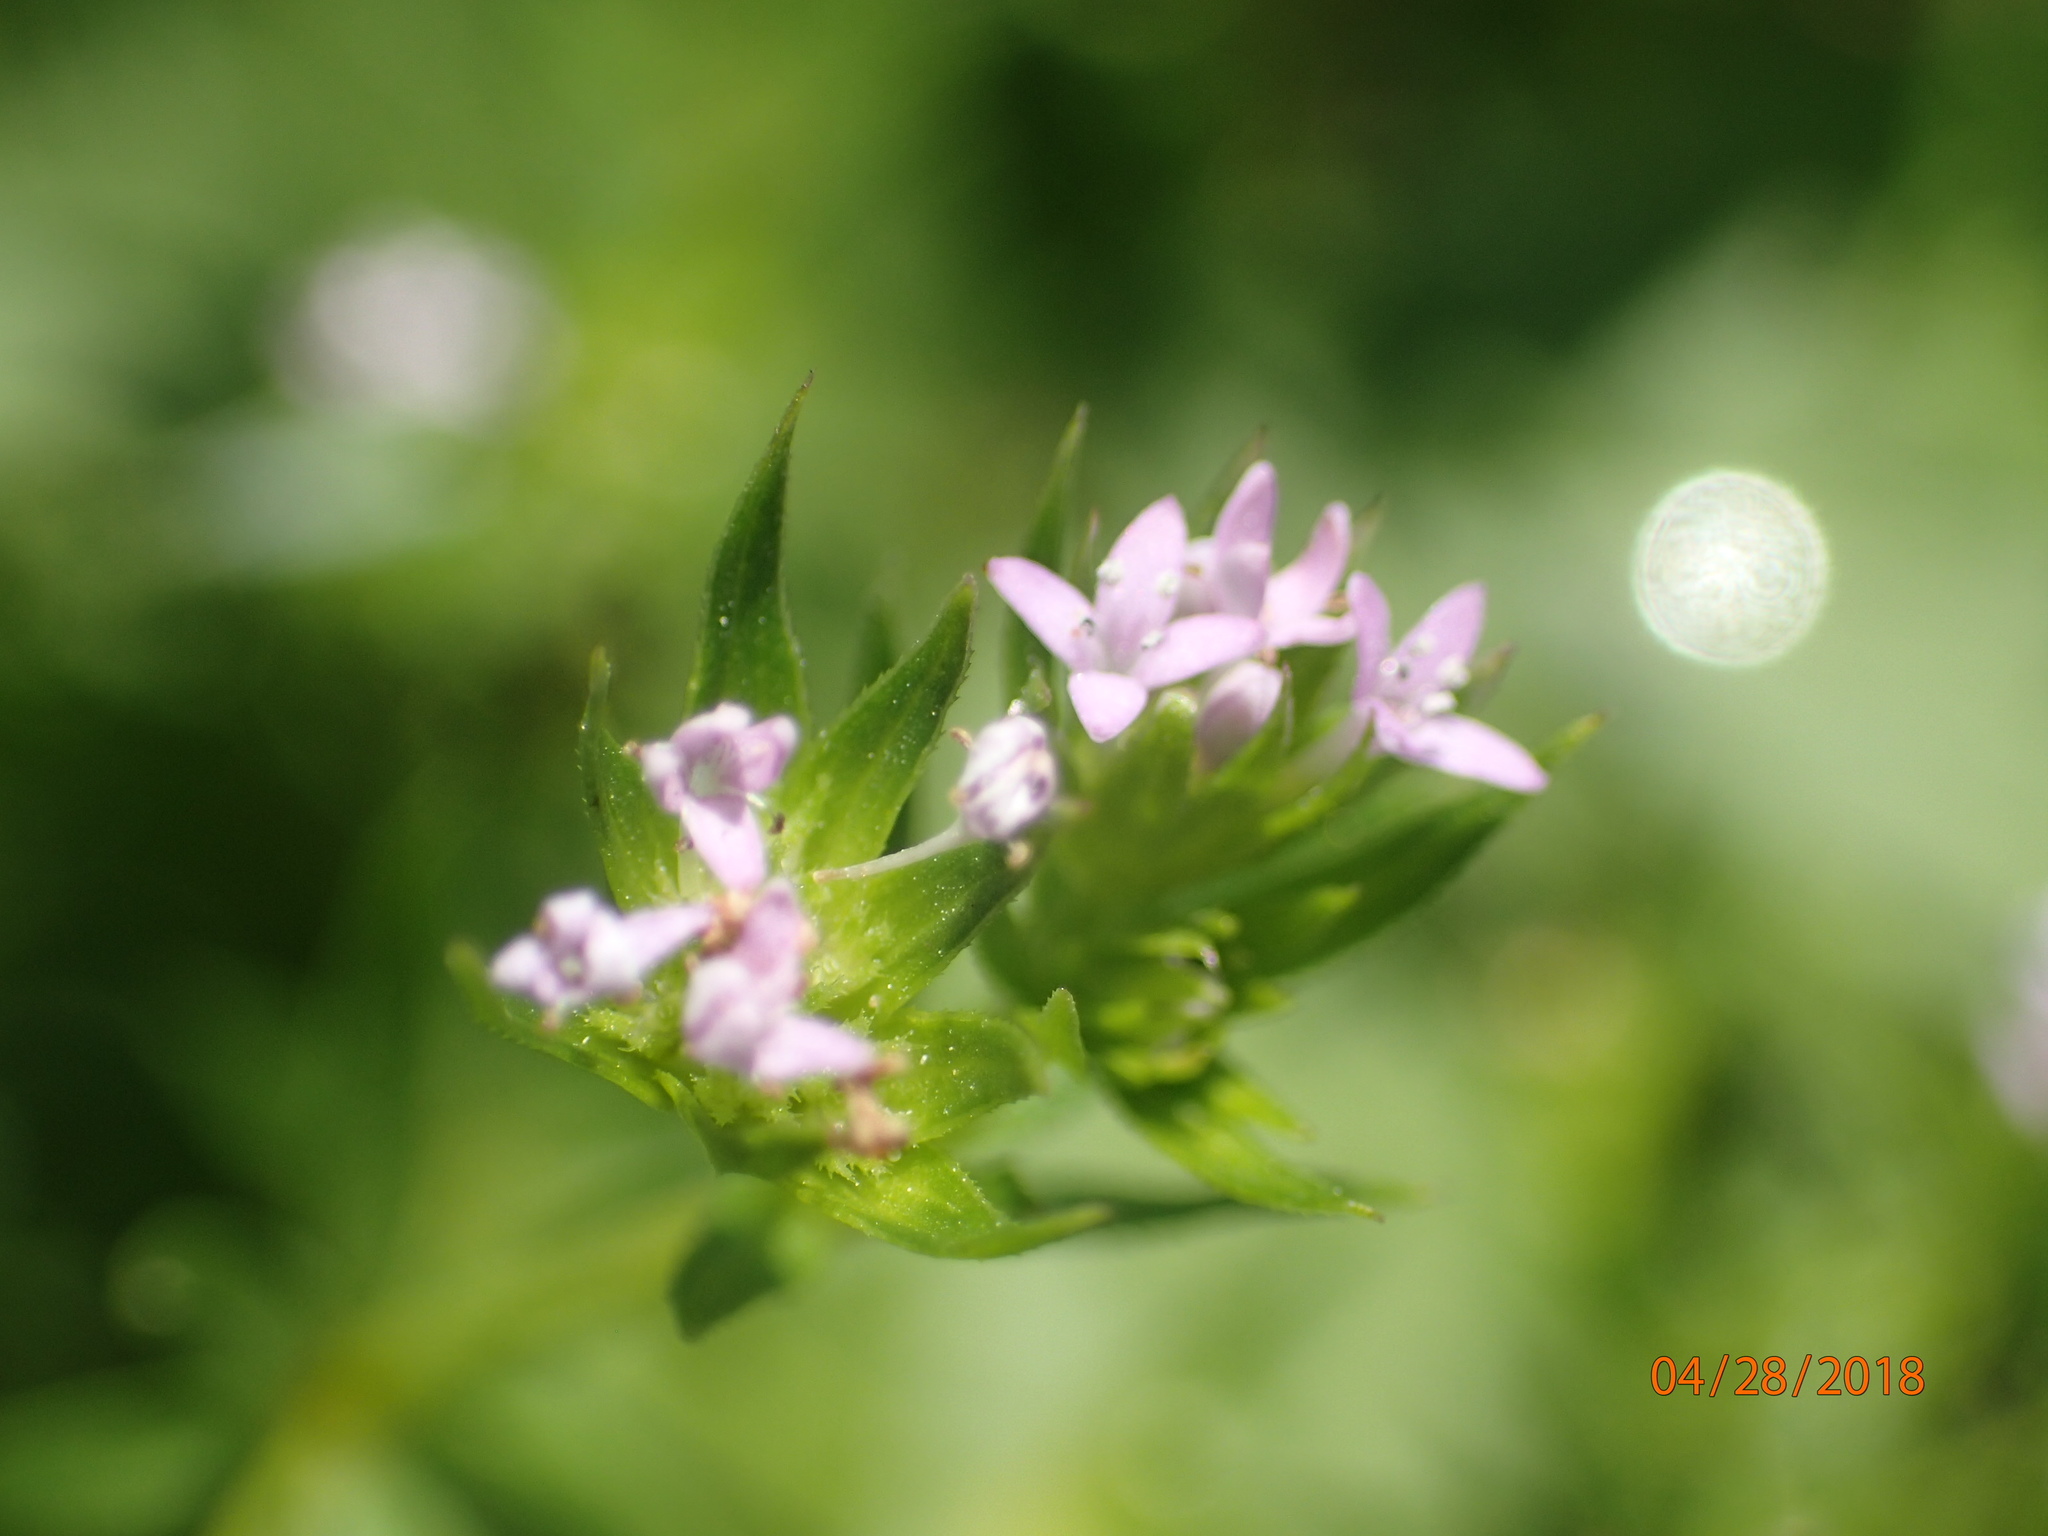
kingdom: Plantae
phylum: Tracheophyta
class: Magnoliopsida
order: Gentianales
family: Rubiaceae
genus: Sherardia
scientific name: Sherardia arvensis
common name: Field madder
